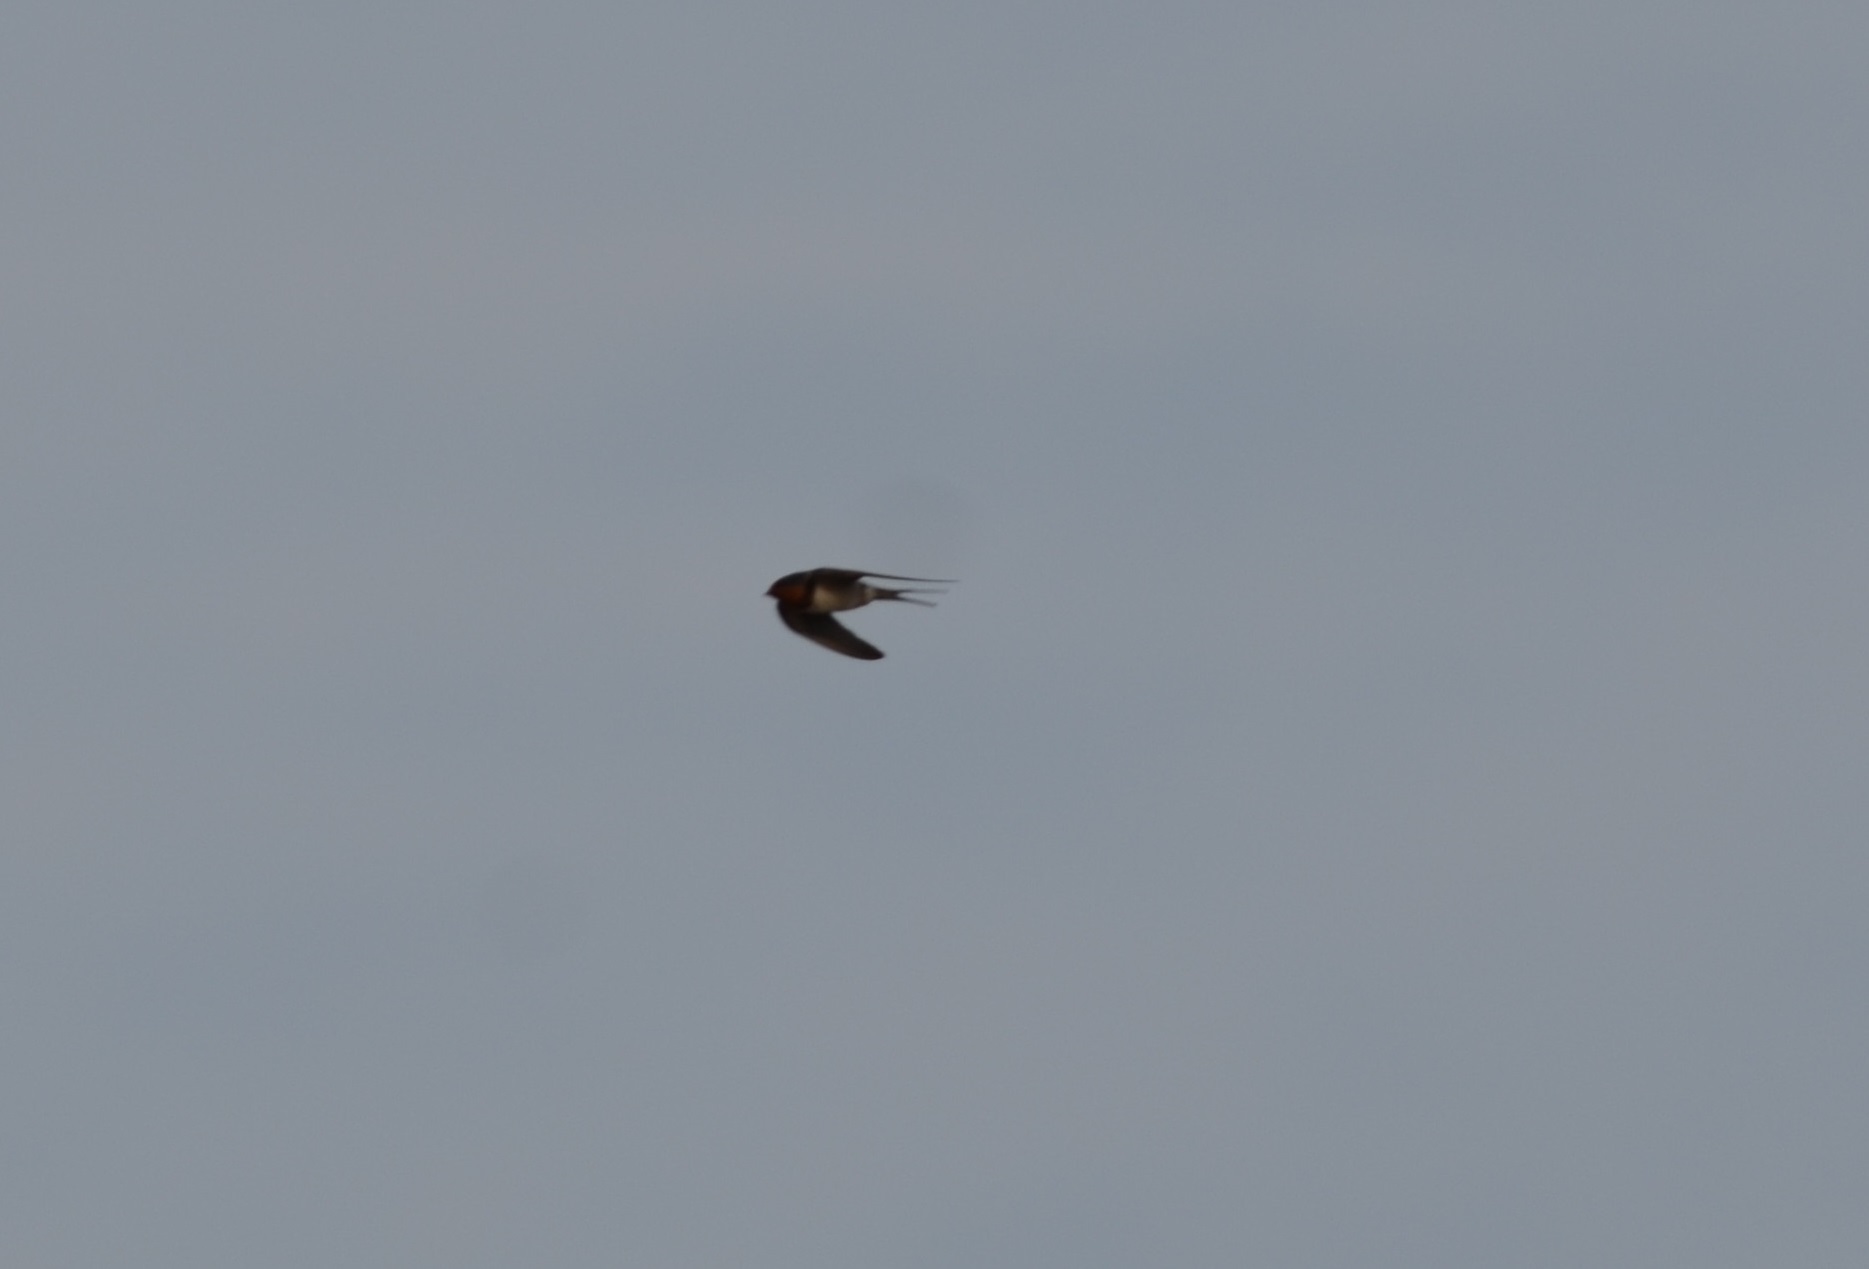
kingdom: Animalia
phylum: Chordata
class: Aves
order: Passeriformes
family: Hirundinidae
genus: Hirundo
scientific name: Hirundo rustica
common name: Barn swallow
